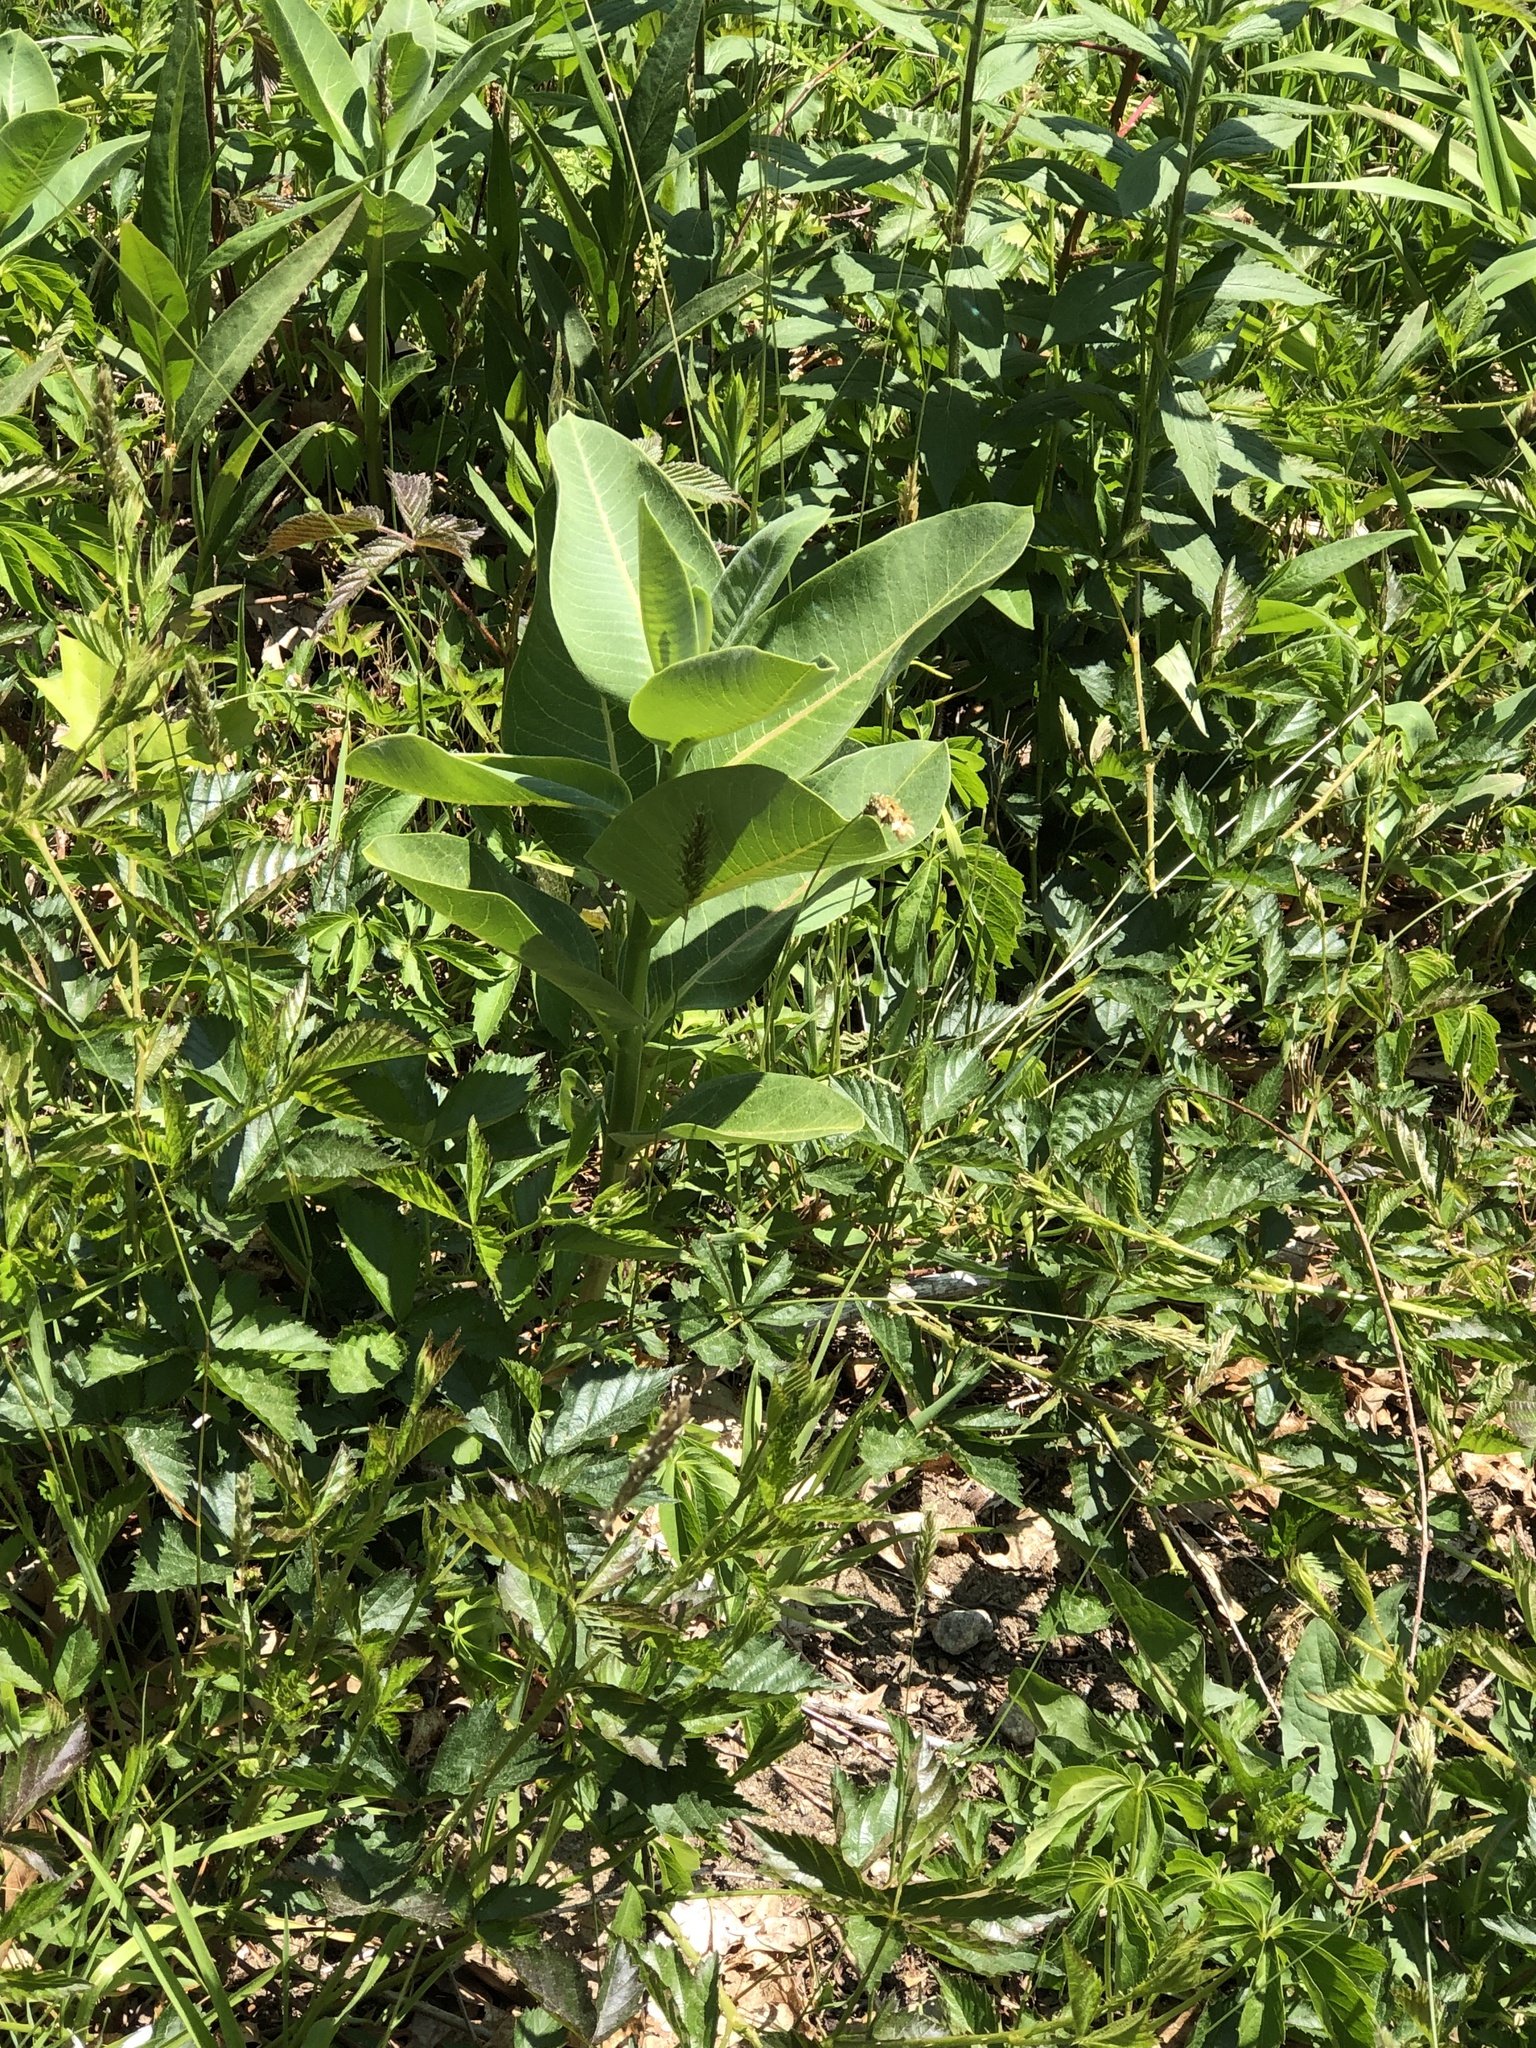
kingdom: Plantae
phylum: Tracheophyta
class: Magnoliopsida
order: Gentianales
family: Apocynaceae
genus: Asclepias
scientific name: Asclepias syriaca
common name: Common milkweed
